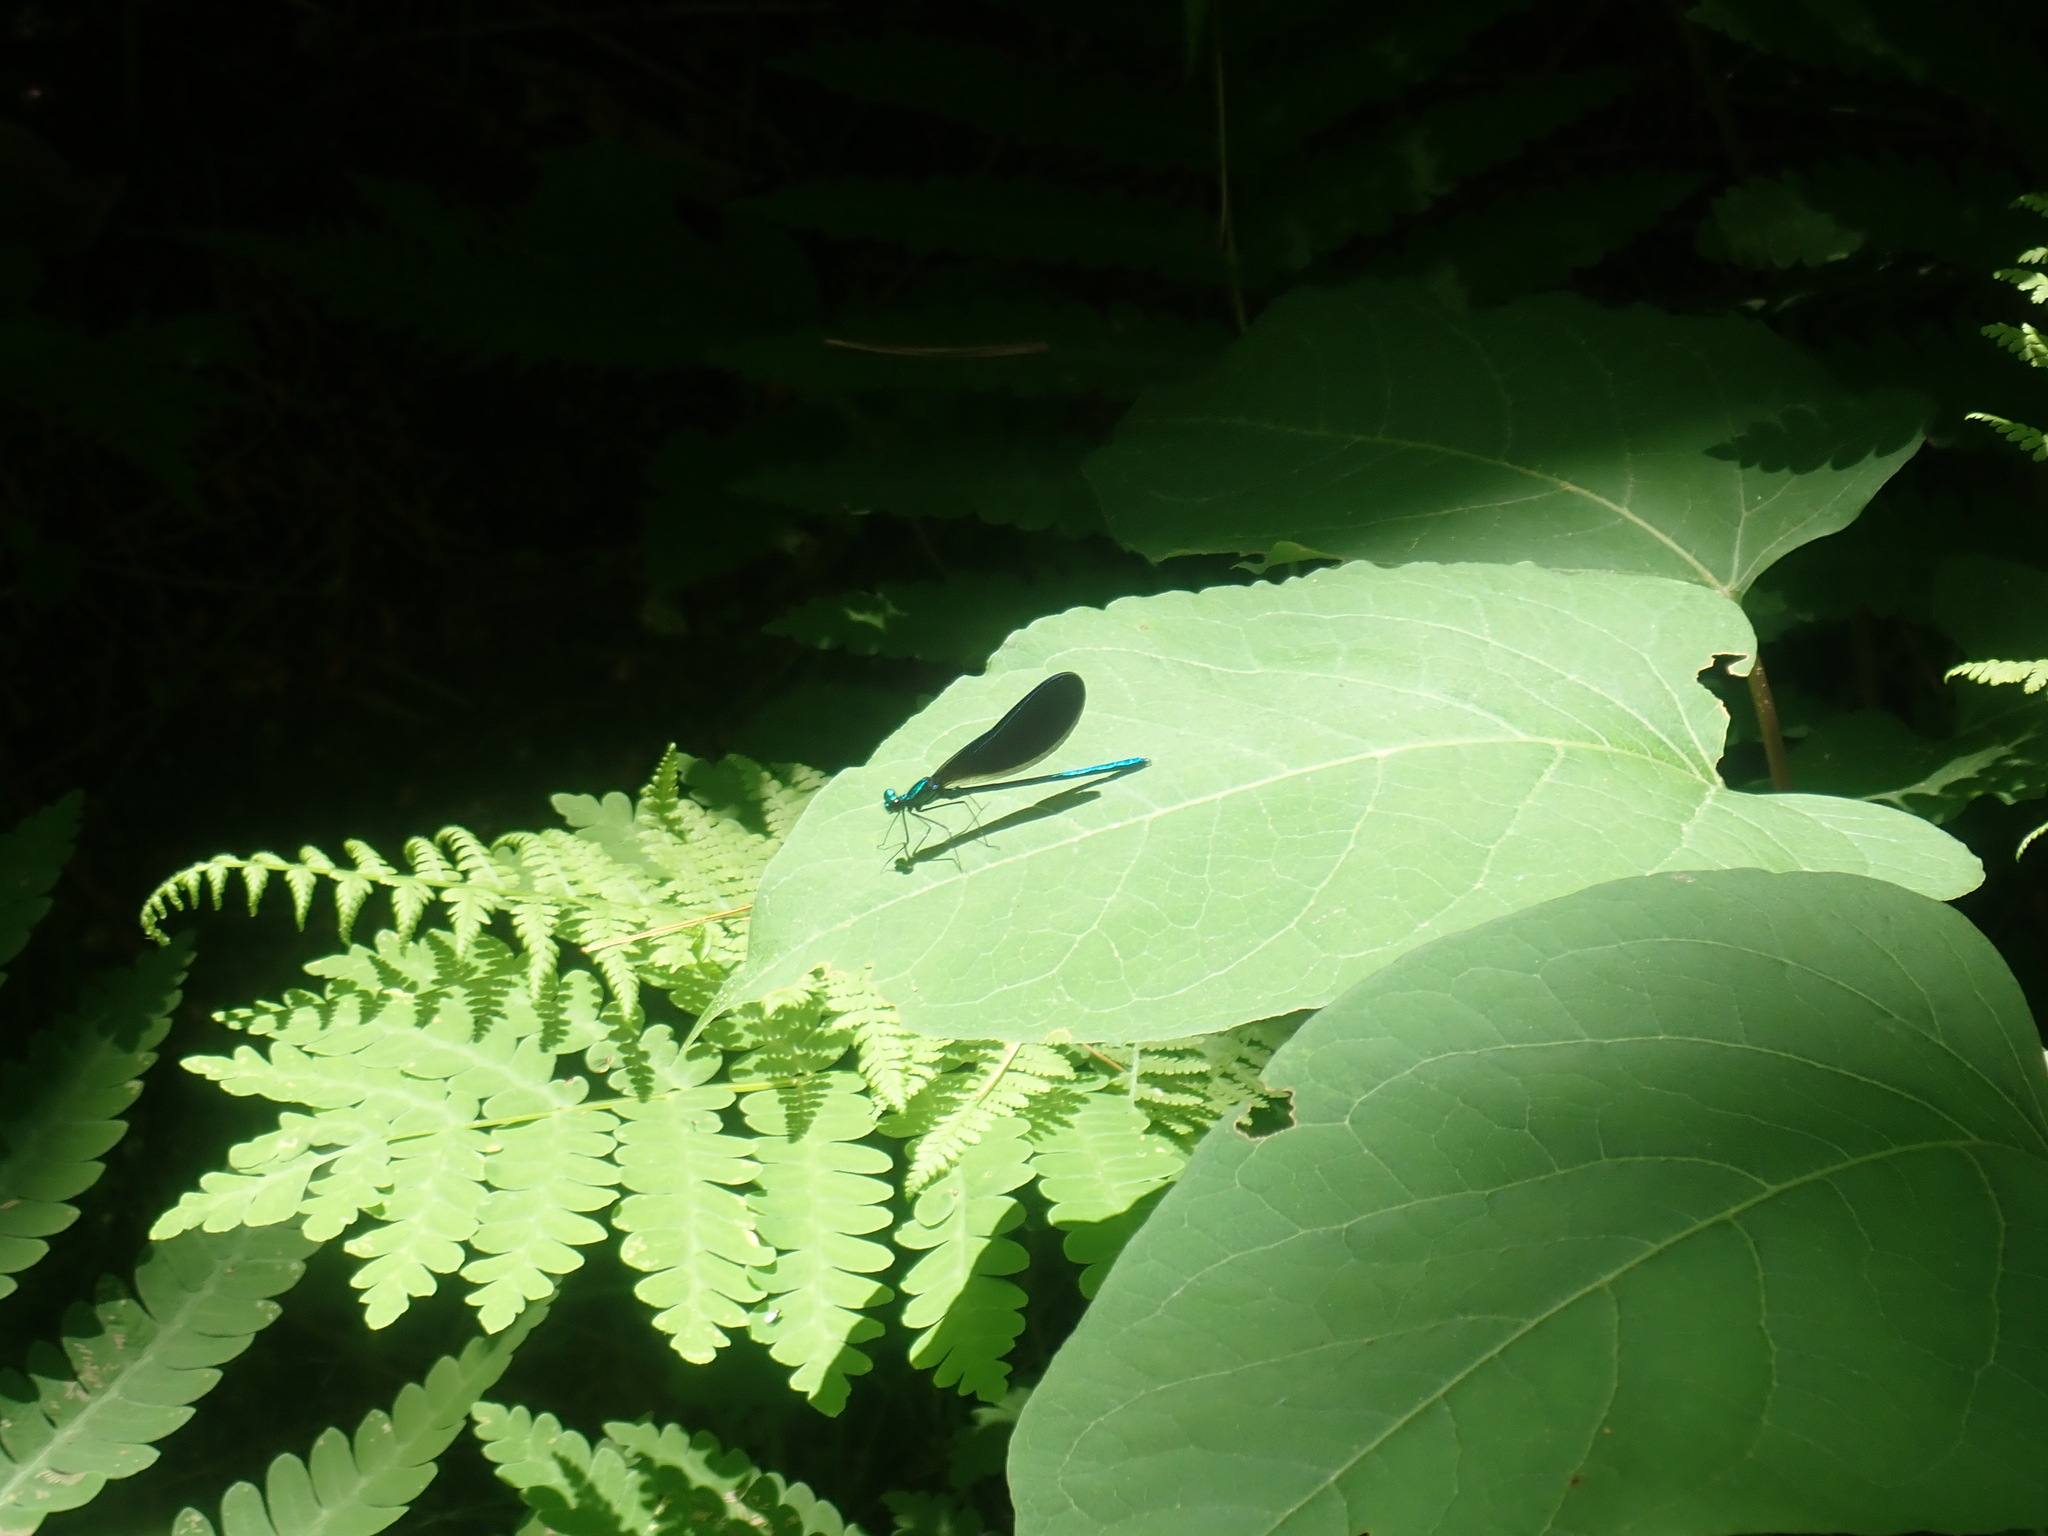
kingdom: Animalia
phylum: Arthropoda
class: Insecta
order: Odonata
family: Calopterygidae
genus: Calopteryx
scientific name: Calopteryx maculata
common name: Ebony jewelwing
